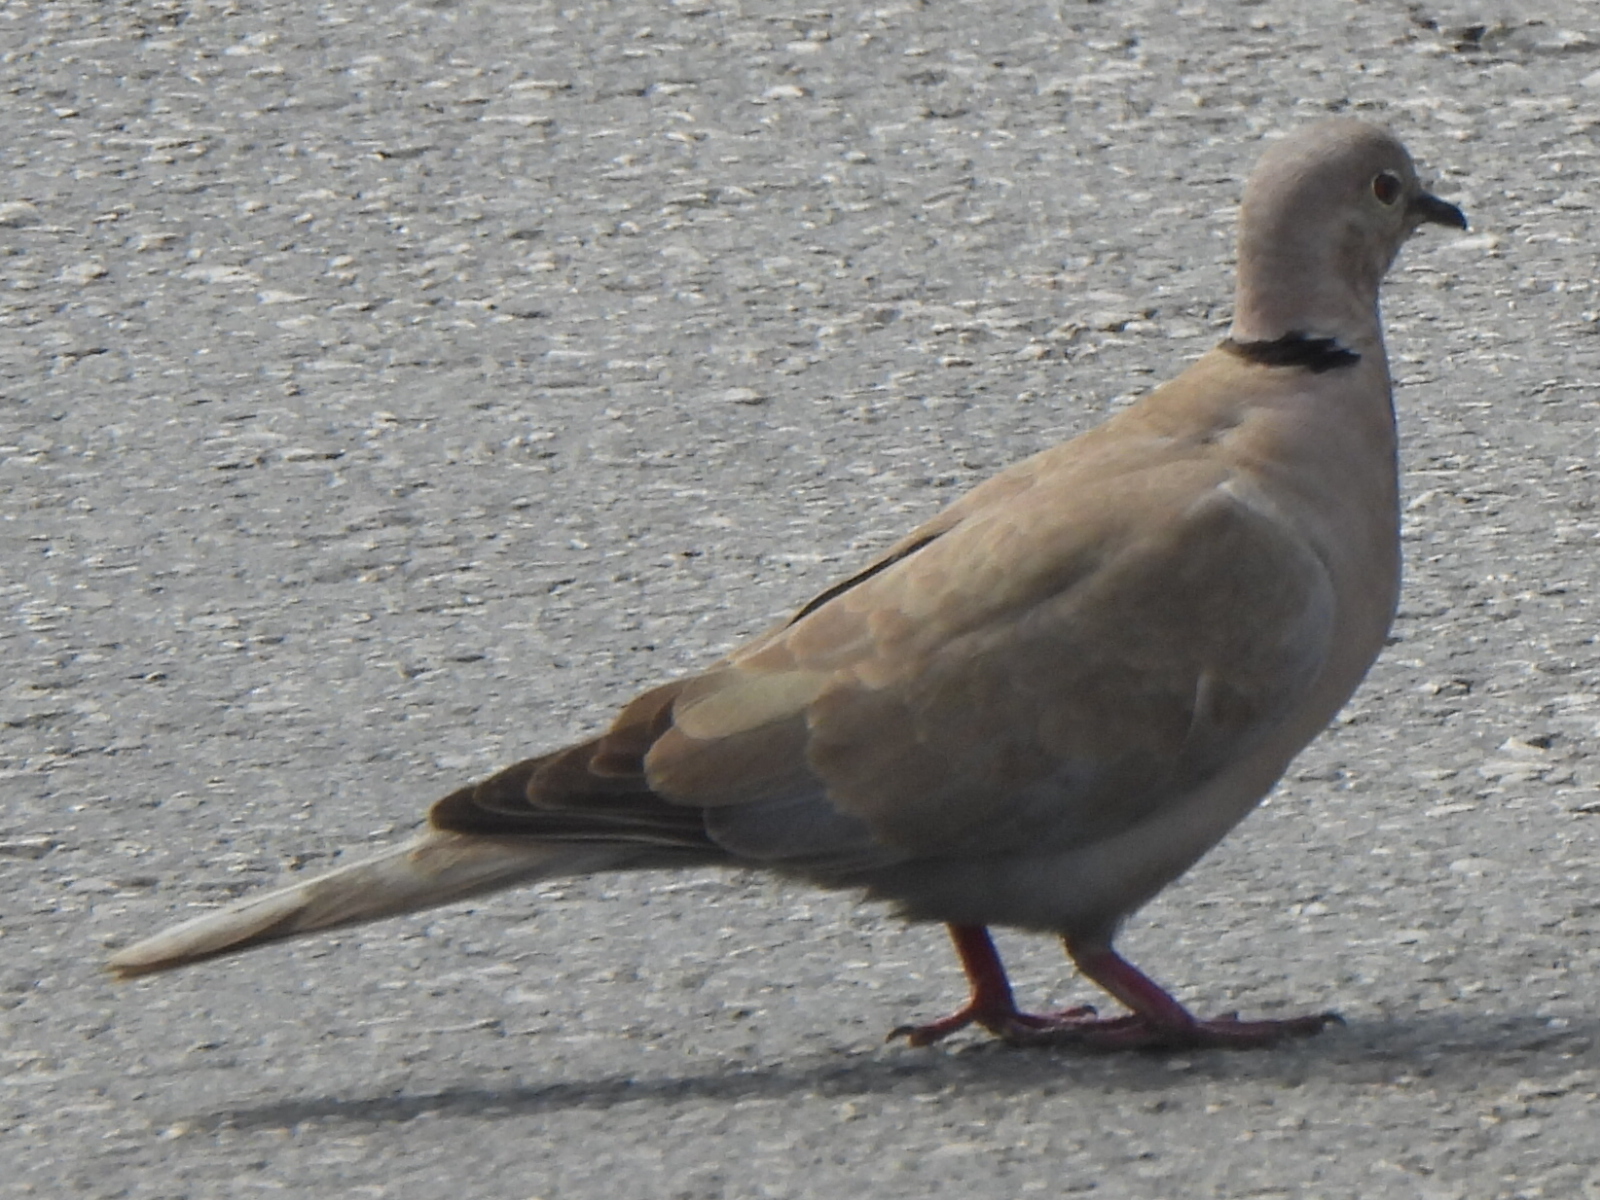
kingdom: Animalia
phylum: Chordata
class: Aves
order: Columbiformes
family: Columbidae
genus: Streptopelia
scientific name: Streptopelia decaocto
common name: Eurasian collared dove
